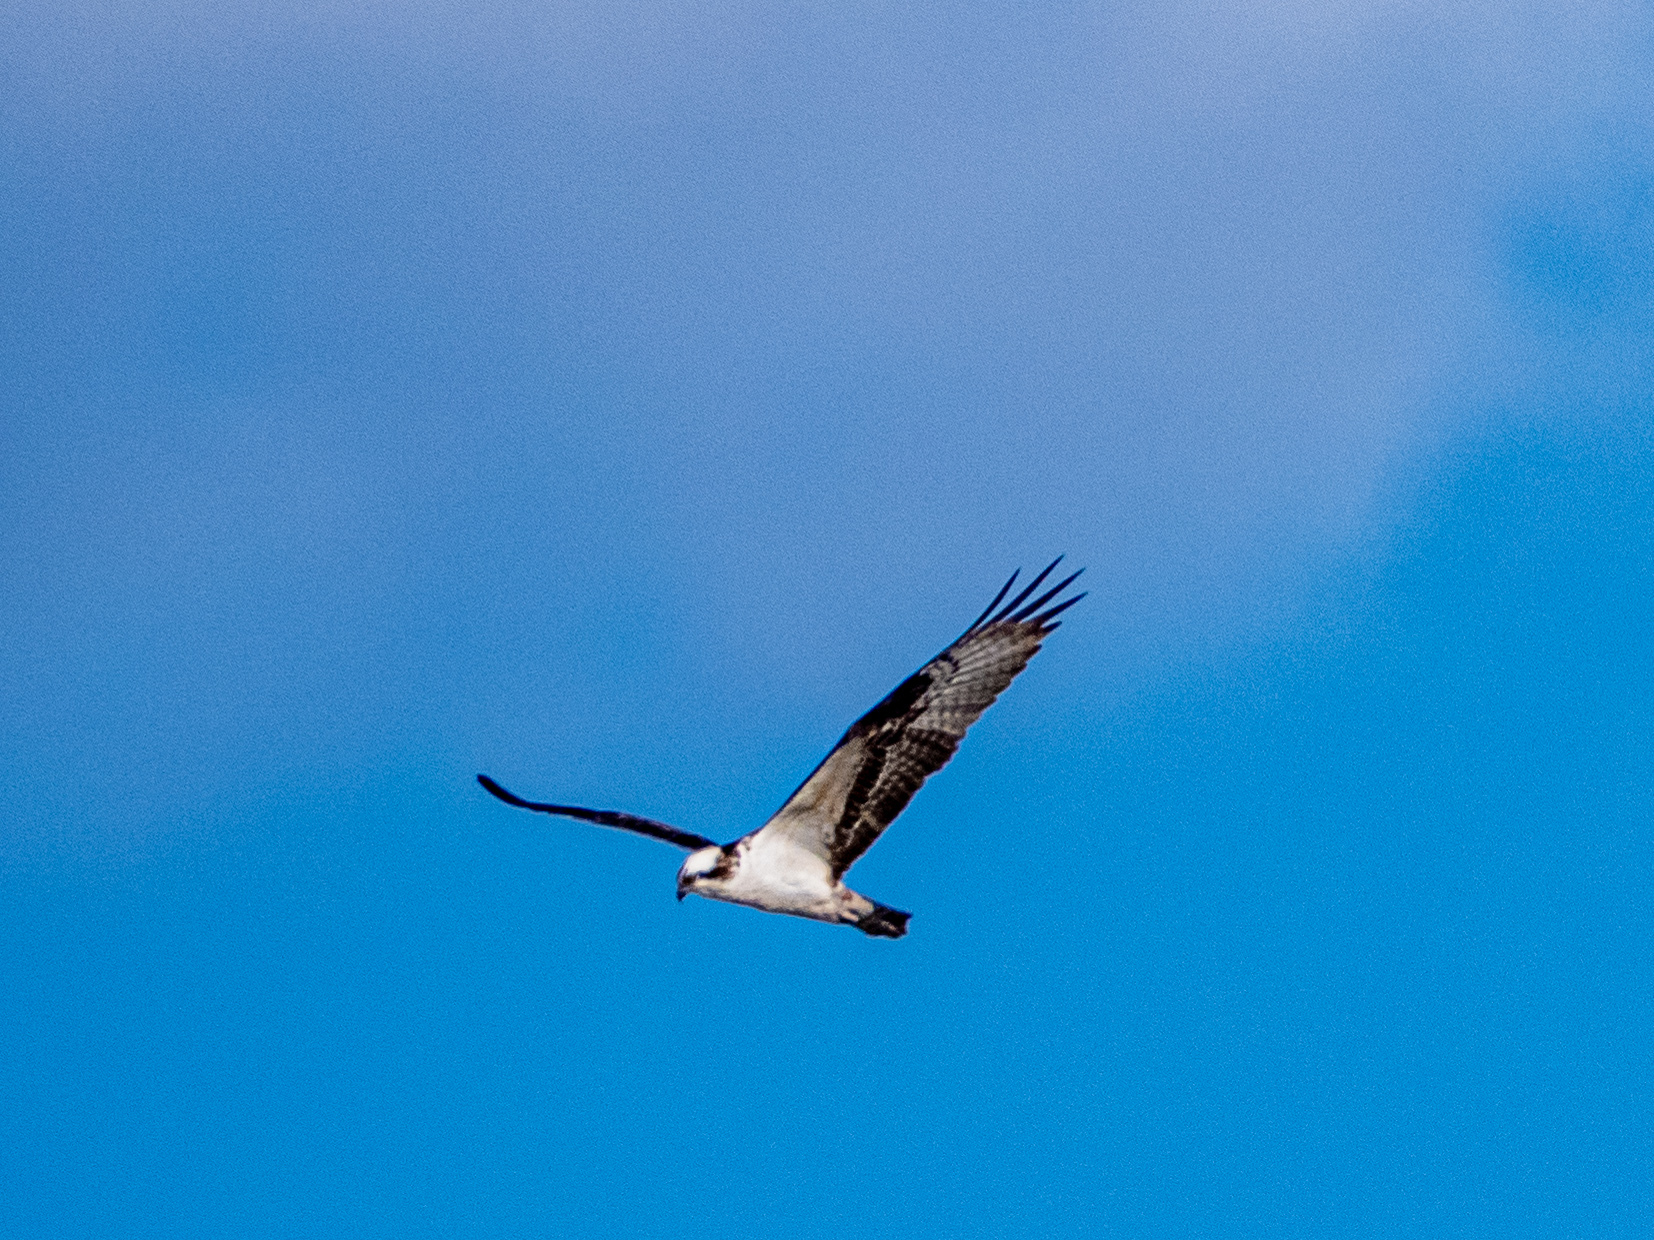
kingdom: Animalia
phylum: Chordata
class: Aves
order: Accipitriformes
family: Pandionidae
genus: Pandion
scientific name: Pandion haliaetus
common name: Osprey
